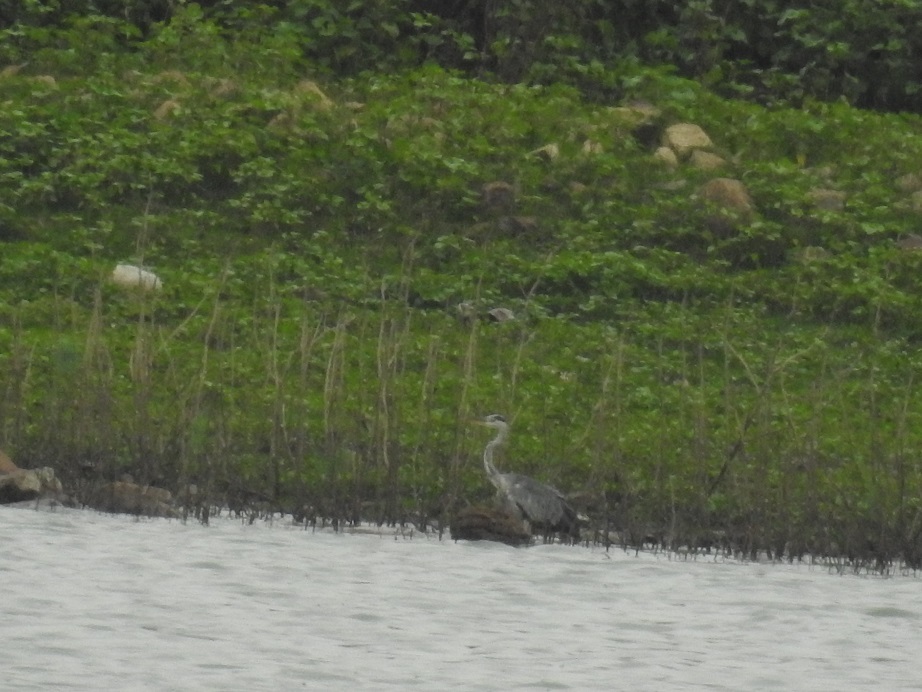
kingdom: Animalia
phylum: Chordata
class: Aves
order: Pelecaniformes
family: Ardeidae
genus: Ardea
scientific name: Ardea cinerea
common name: Grey heron
